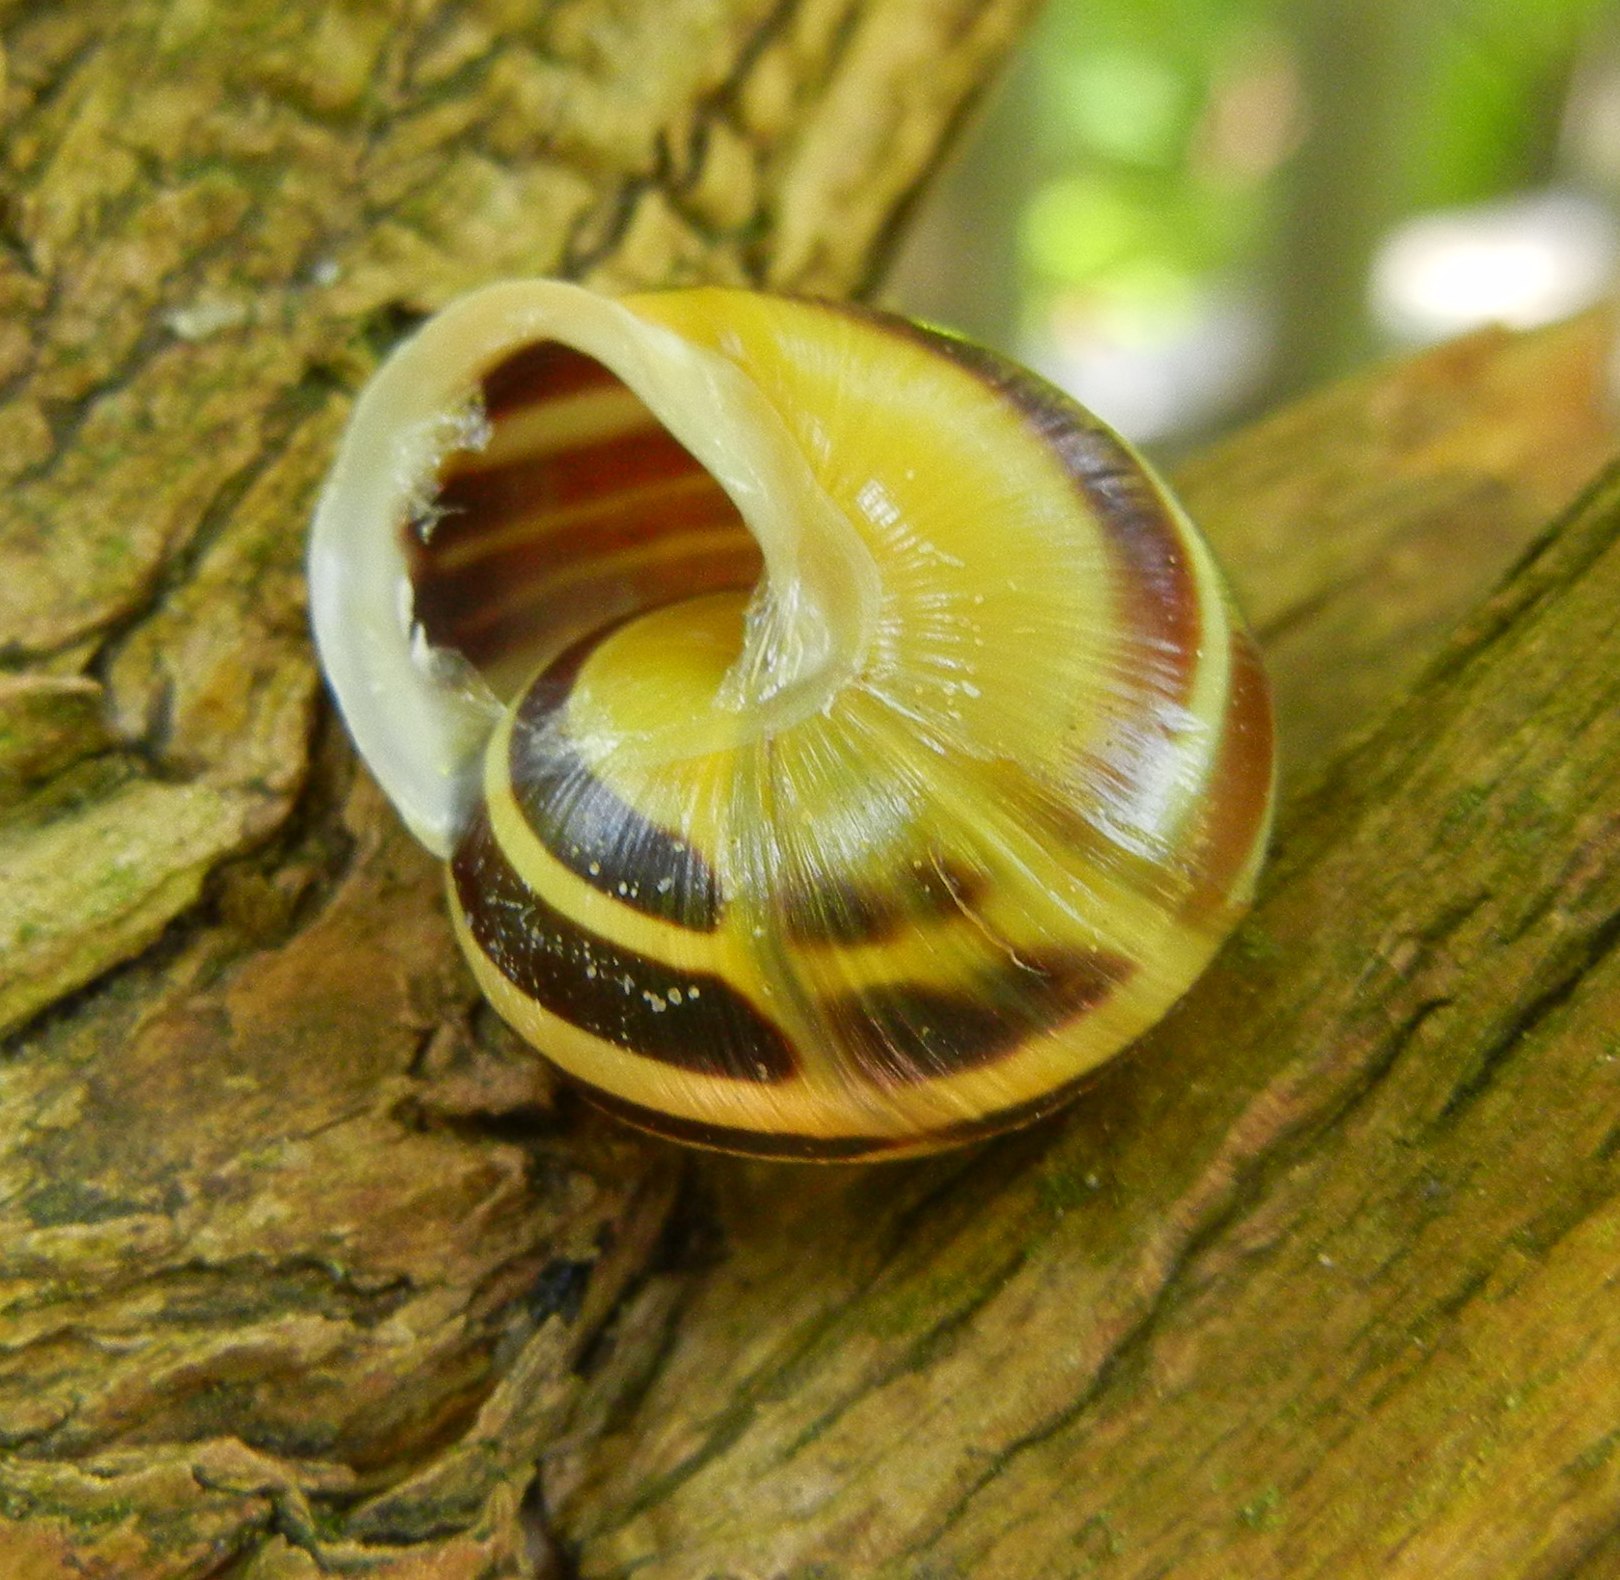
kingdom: Animalia
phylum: Mollusca
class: Gastropoda
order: Stylommatophora
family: Helicidae
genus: Cepaea
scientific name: Cepaea hortensis
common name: White-lip gardensnail
